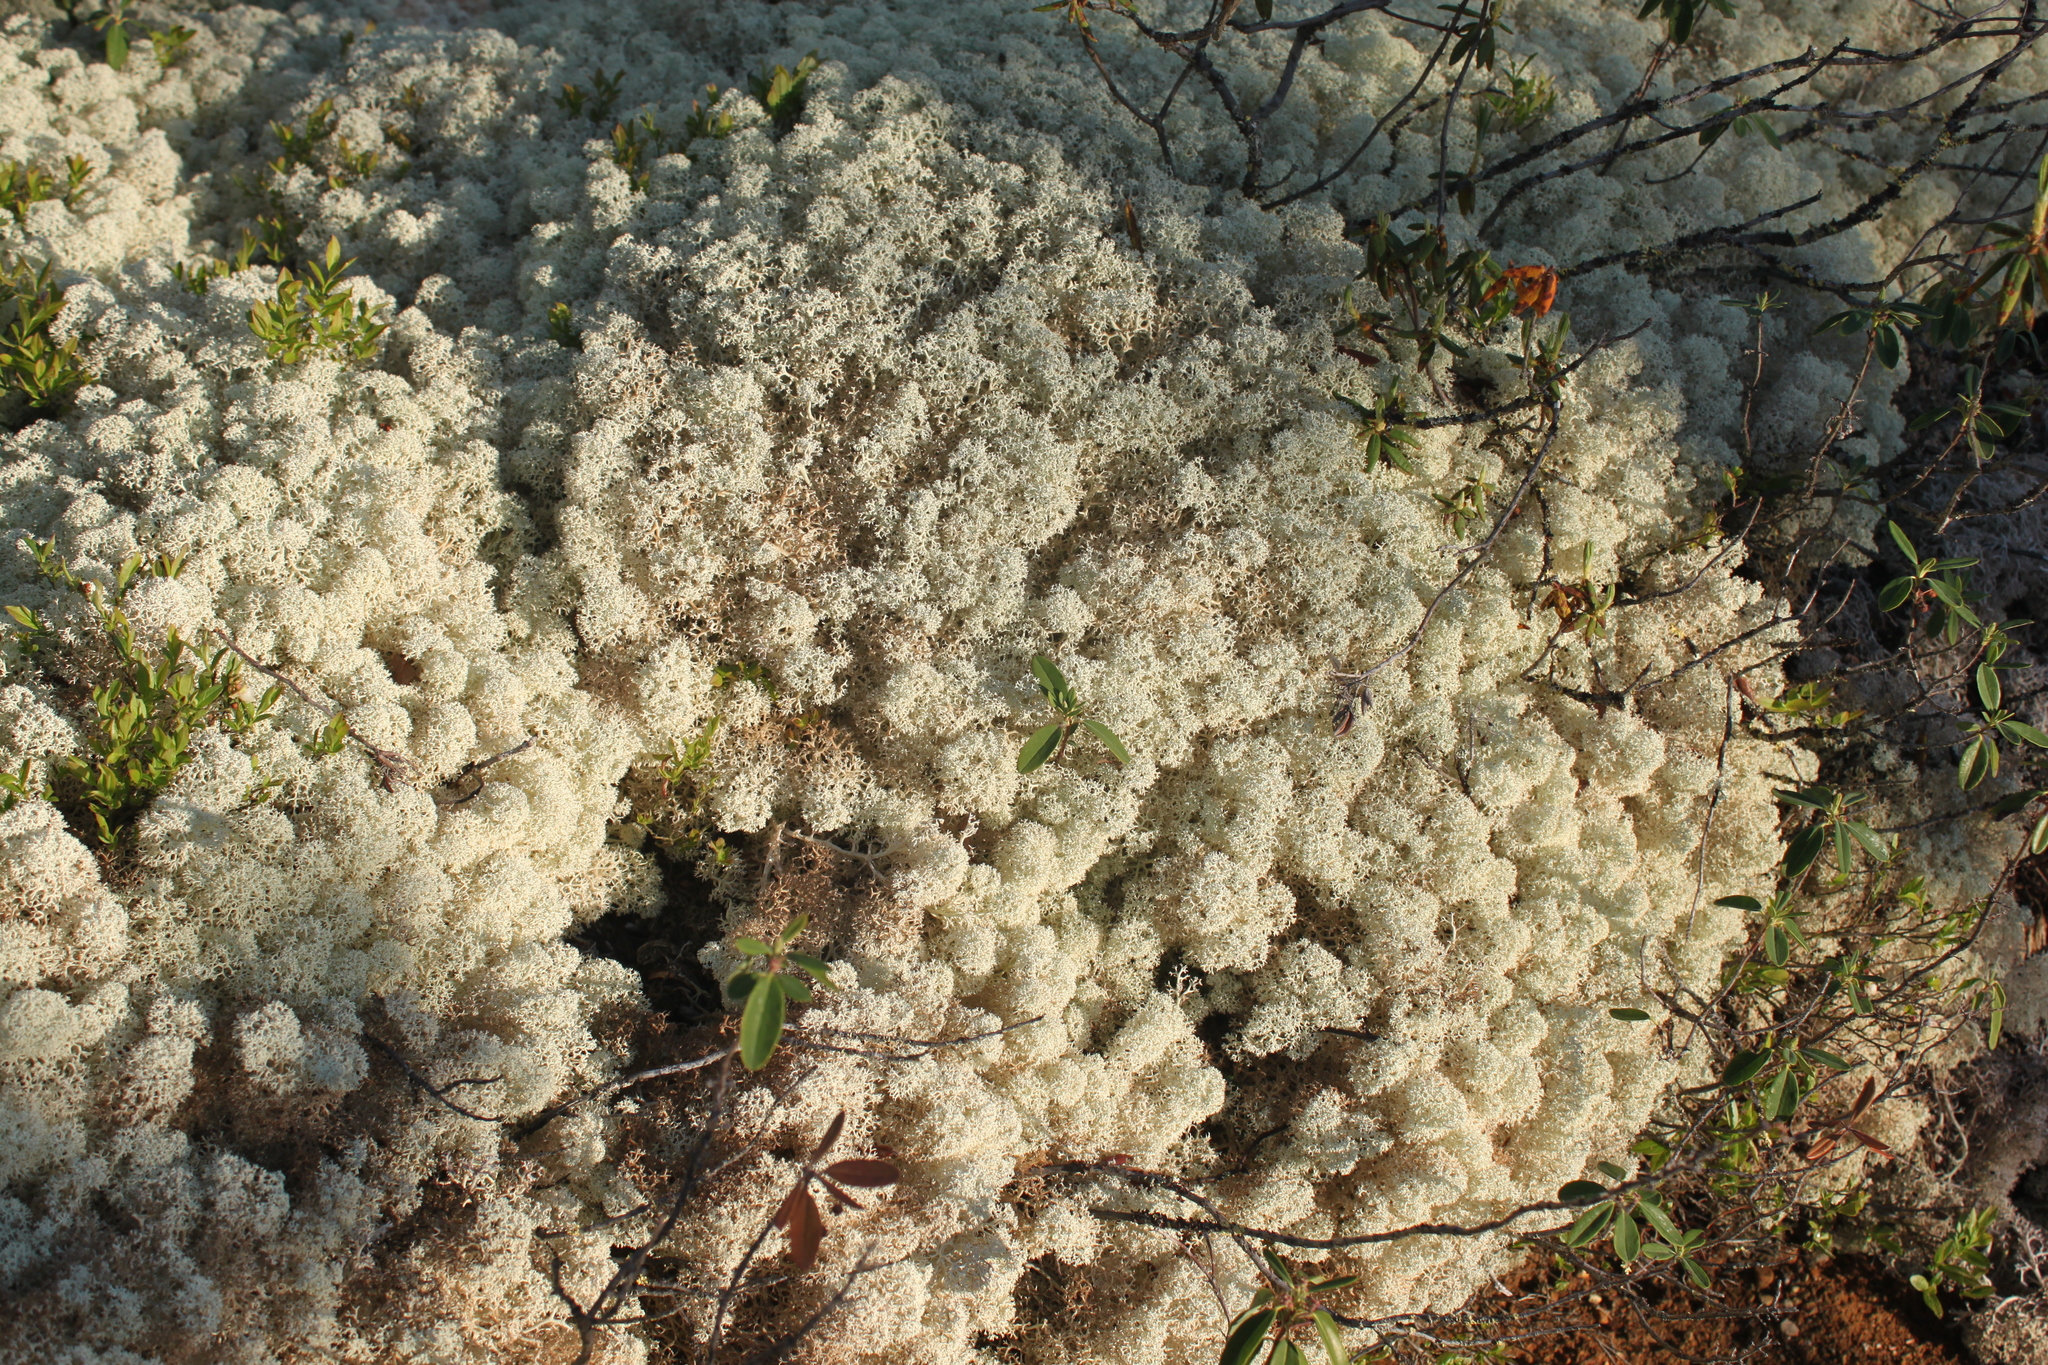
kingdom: Fungi
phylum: Ascomycota
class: Lecanoromycetes
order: Lecanorales
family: Cladoniaceae
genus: Cladonia
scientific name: Cladonia stellaris
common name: Star-tipped reindeer lichen
